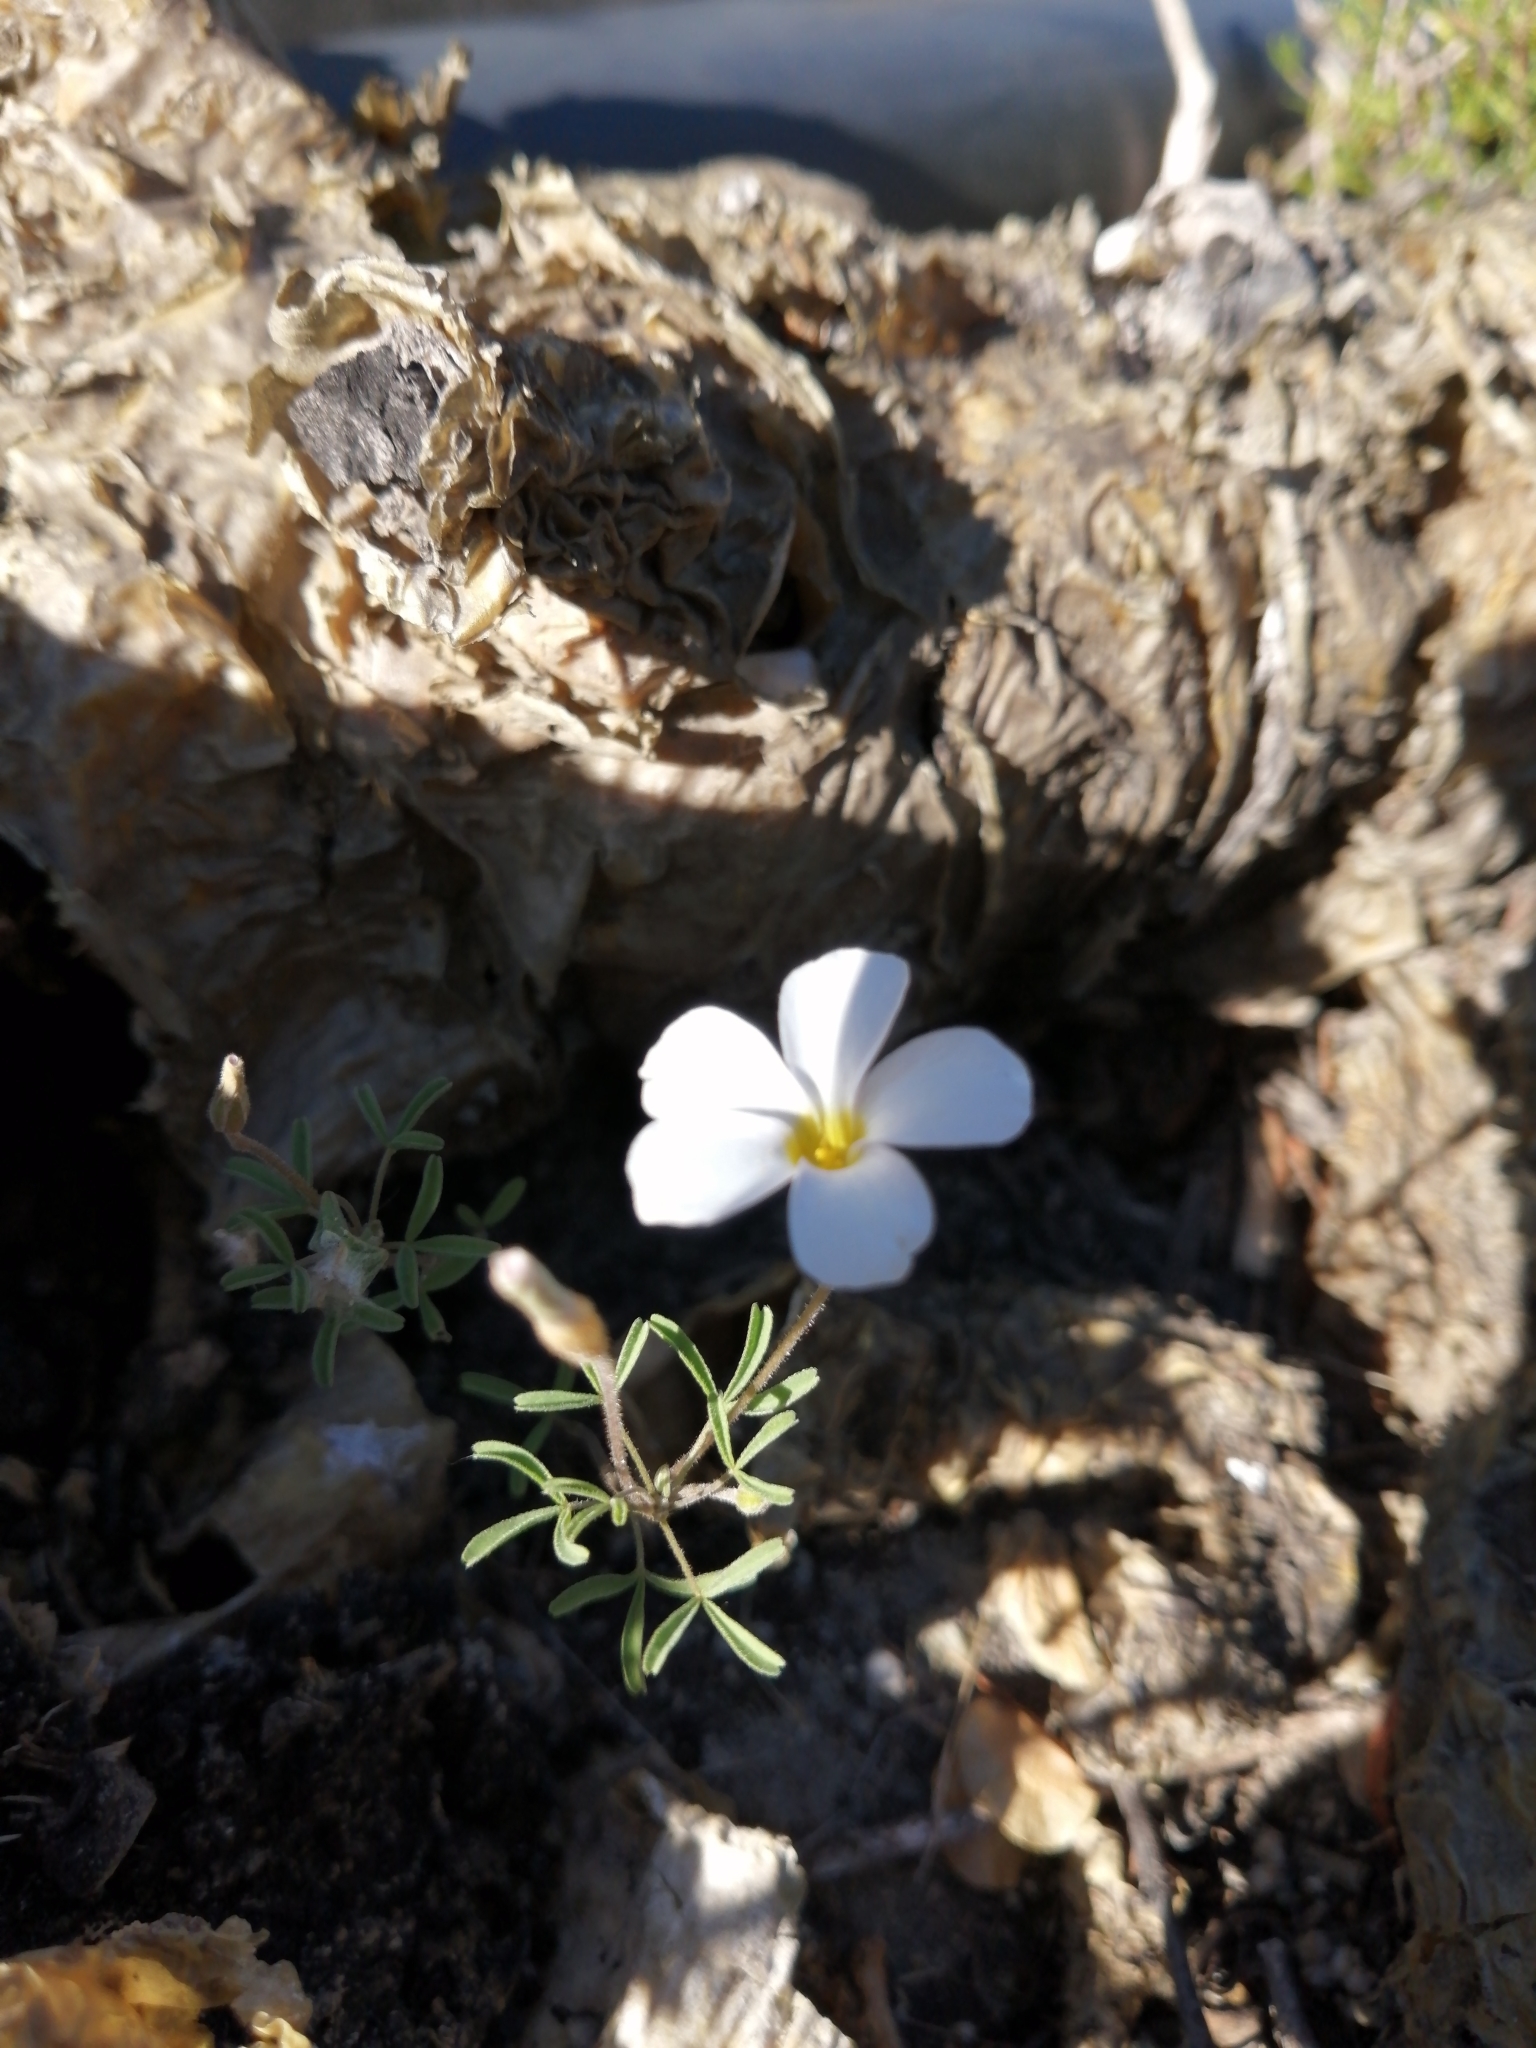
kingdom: Plantae
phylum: Tracheophyta
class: Magnoliopsida
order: Oxalidales
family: Oxalidaceae
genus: Oxalis
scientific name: Oxalis ciliaris
